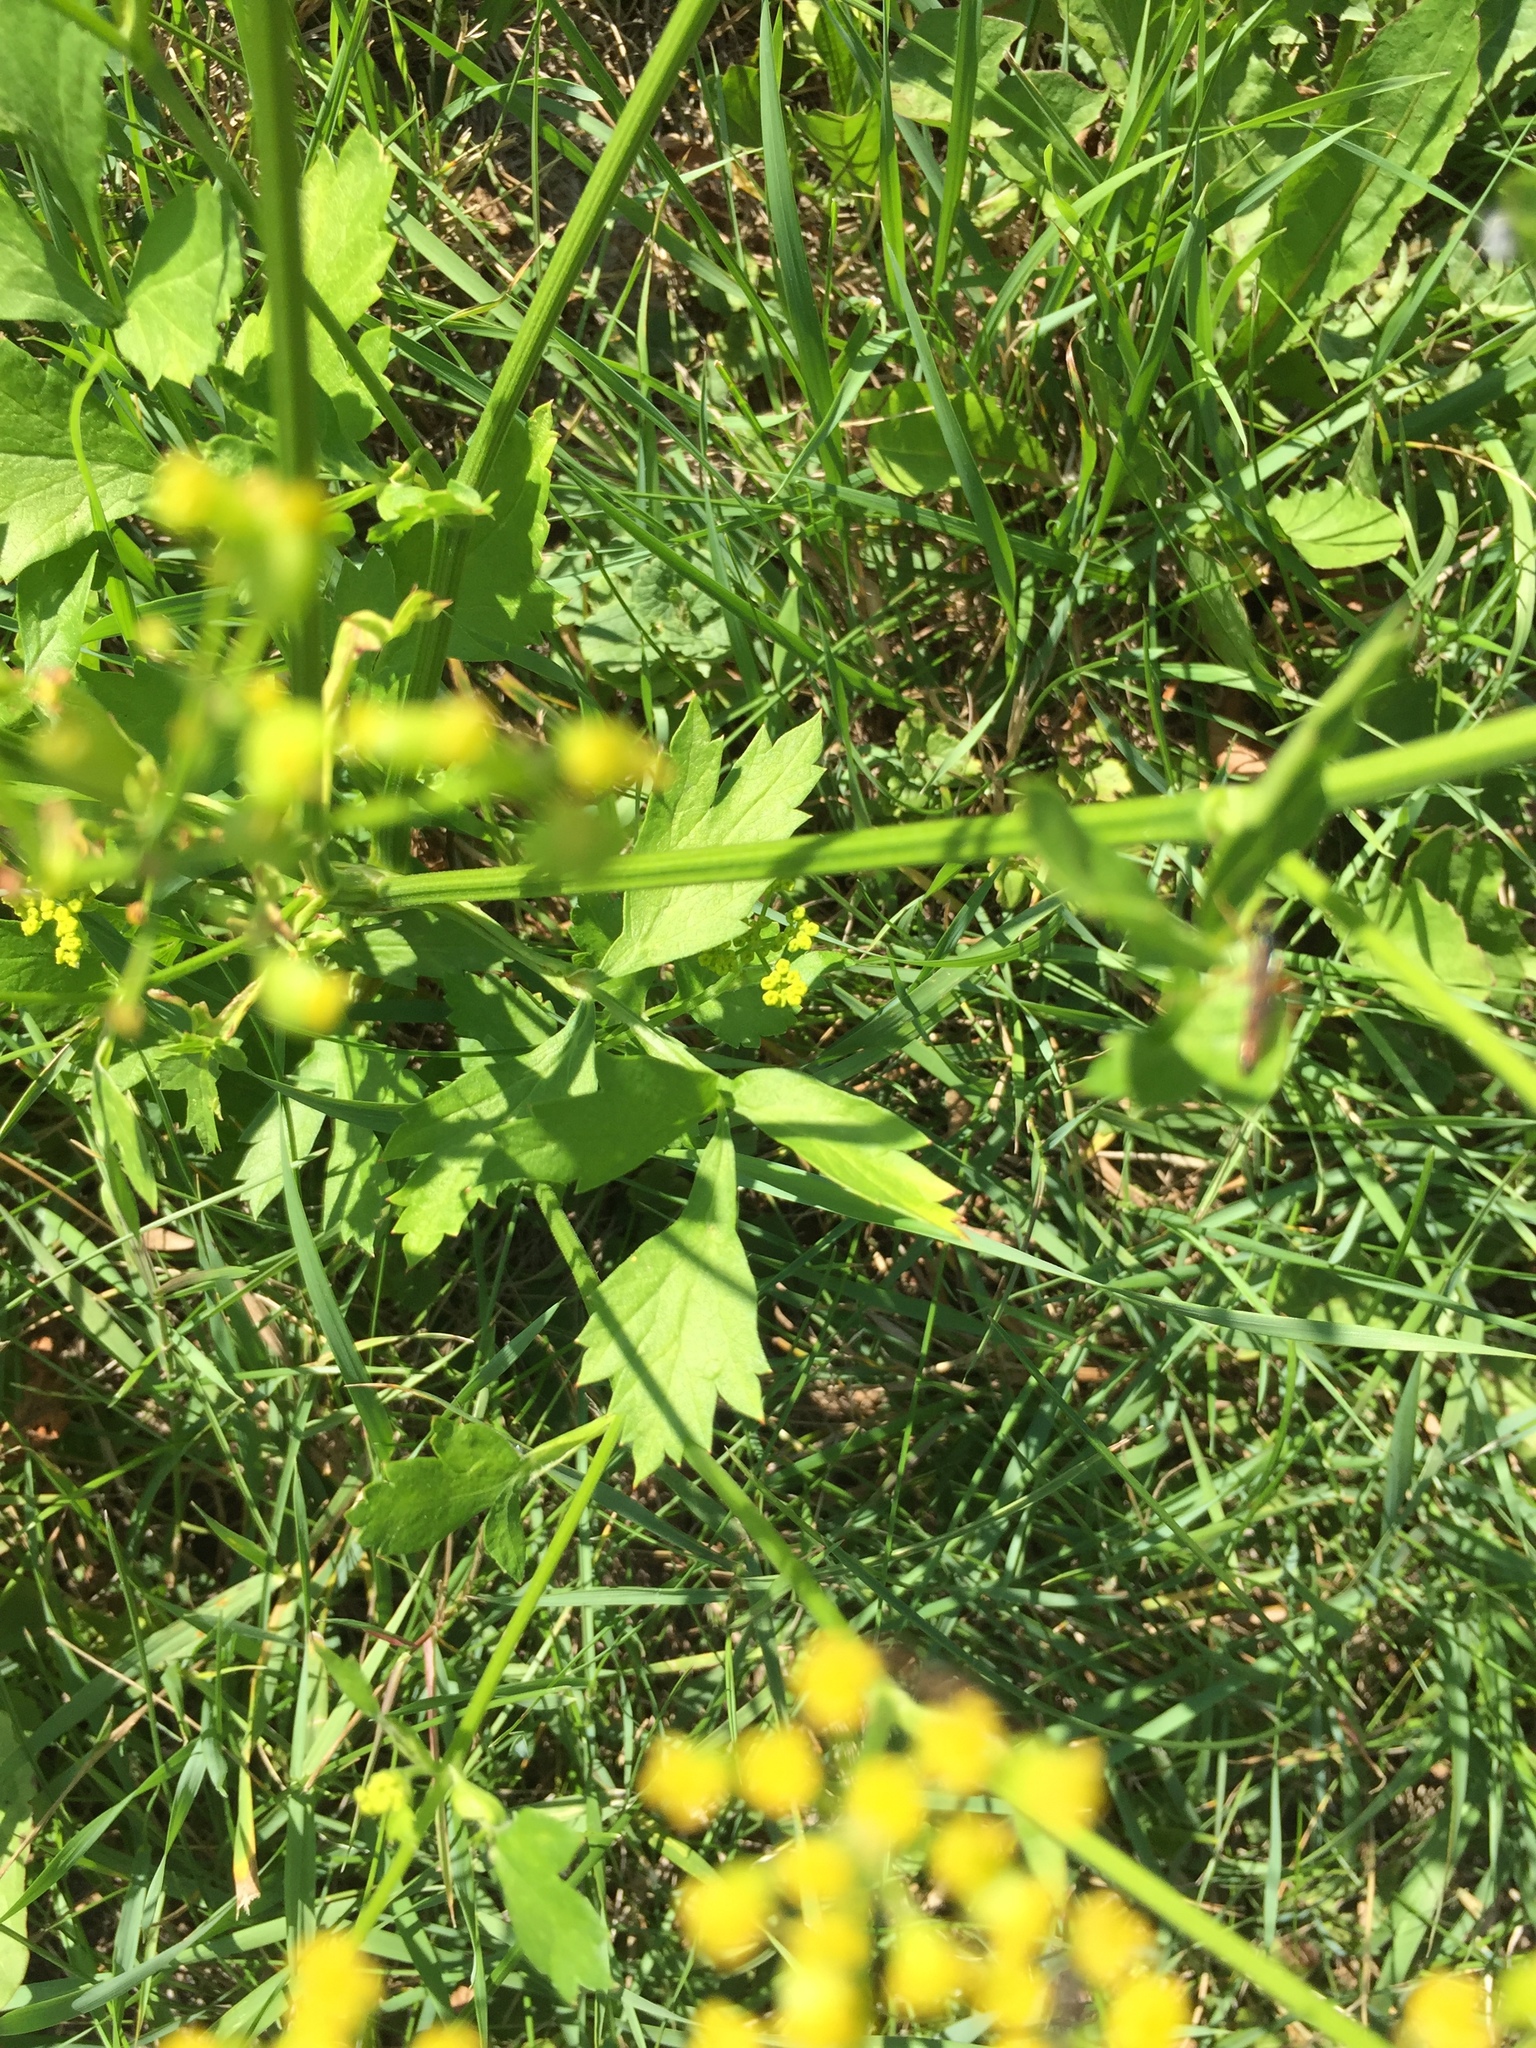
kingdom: Plantae
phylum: Tracheophyta
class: Magnoliopsida
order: Apiales
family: Apiaceae
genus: Pastinaca
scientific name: Pastinaca sativa
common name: Wild parsnip
